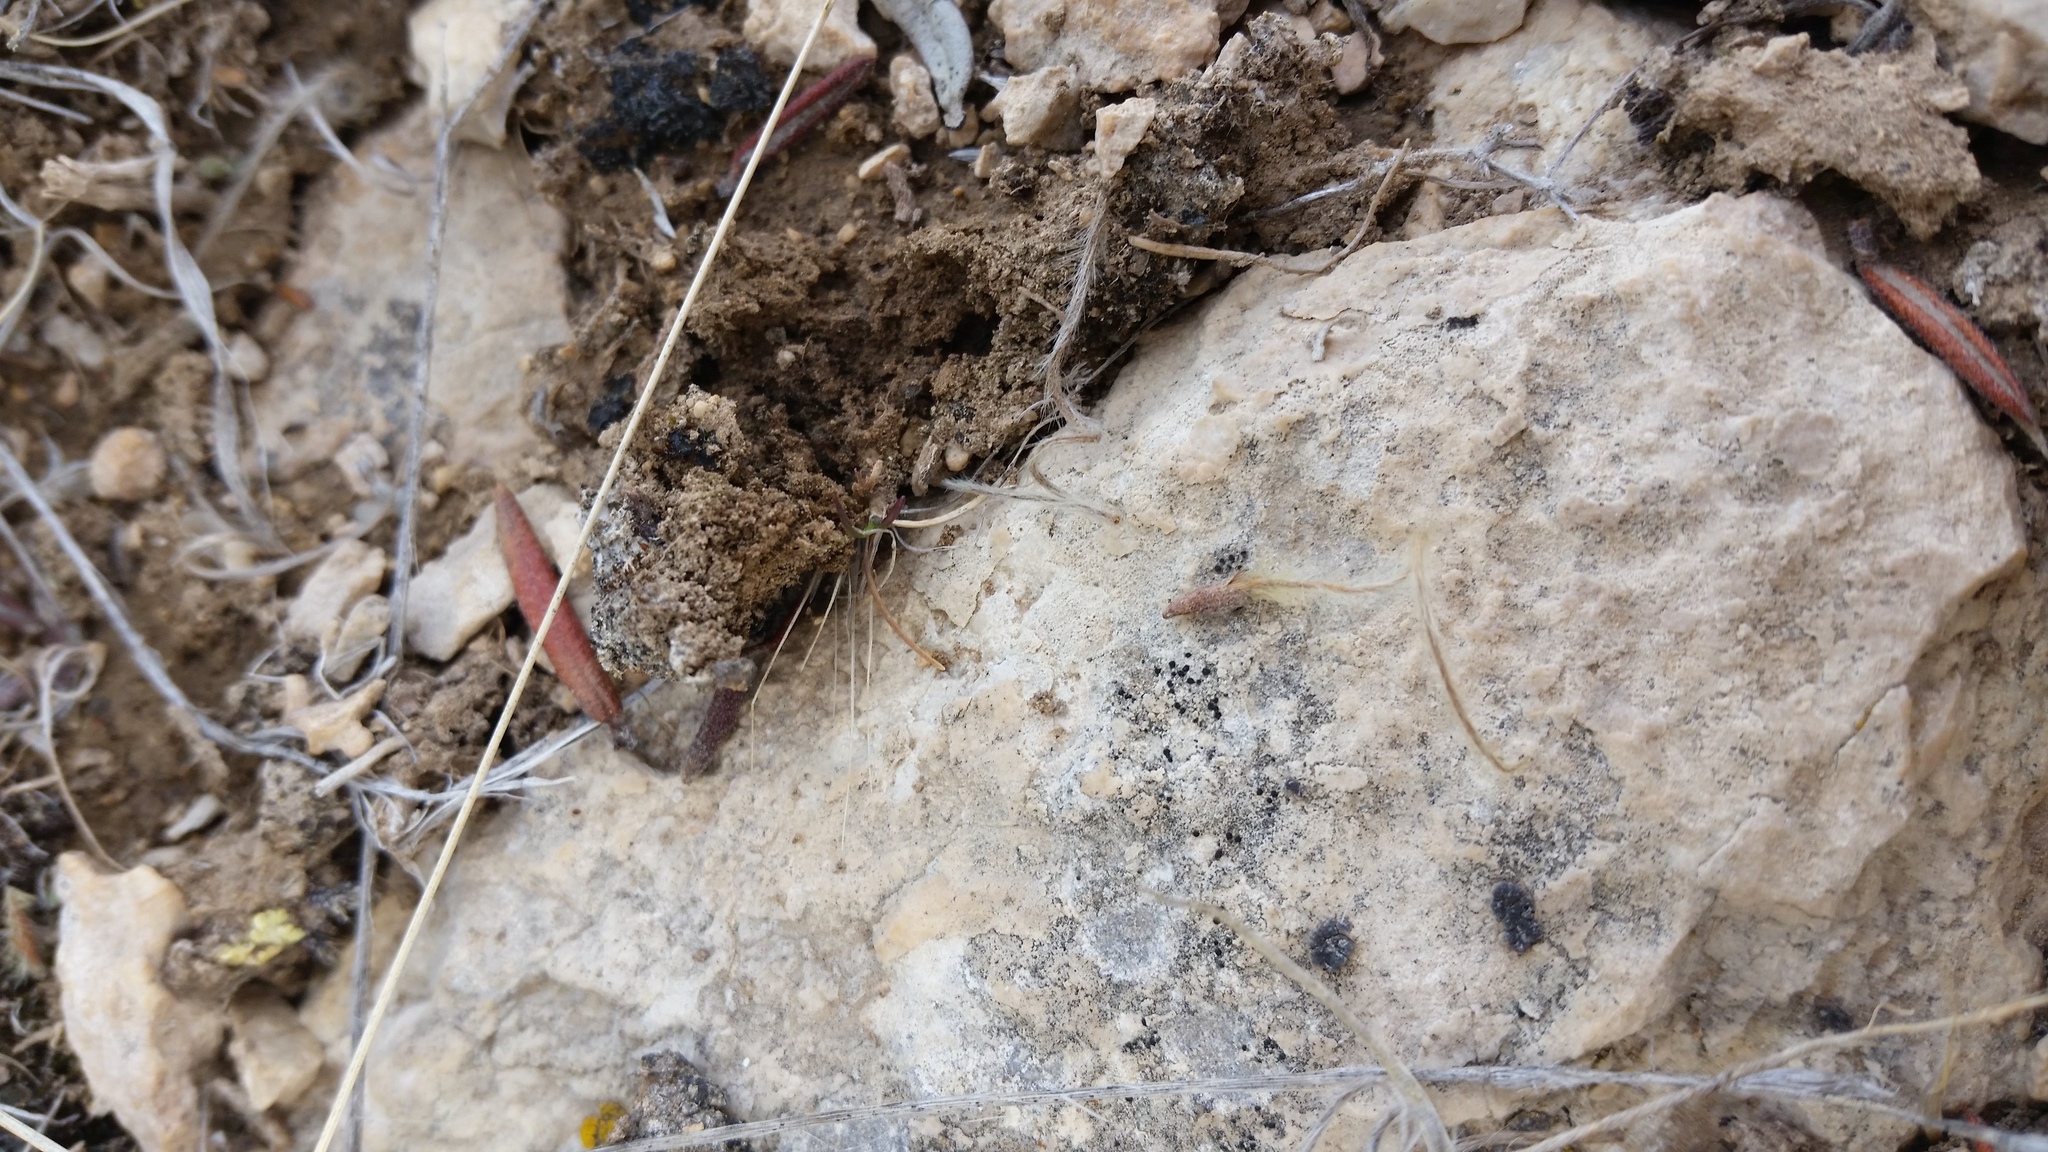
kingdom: Plantae
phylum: Tracheophyta
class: Magnoliopsida
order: Rosales
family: Rosaceae
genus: Cercocarpus
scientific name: Cercocarpus ledifolius
